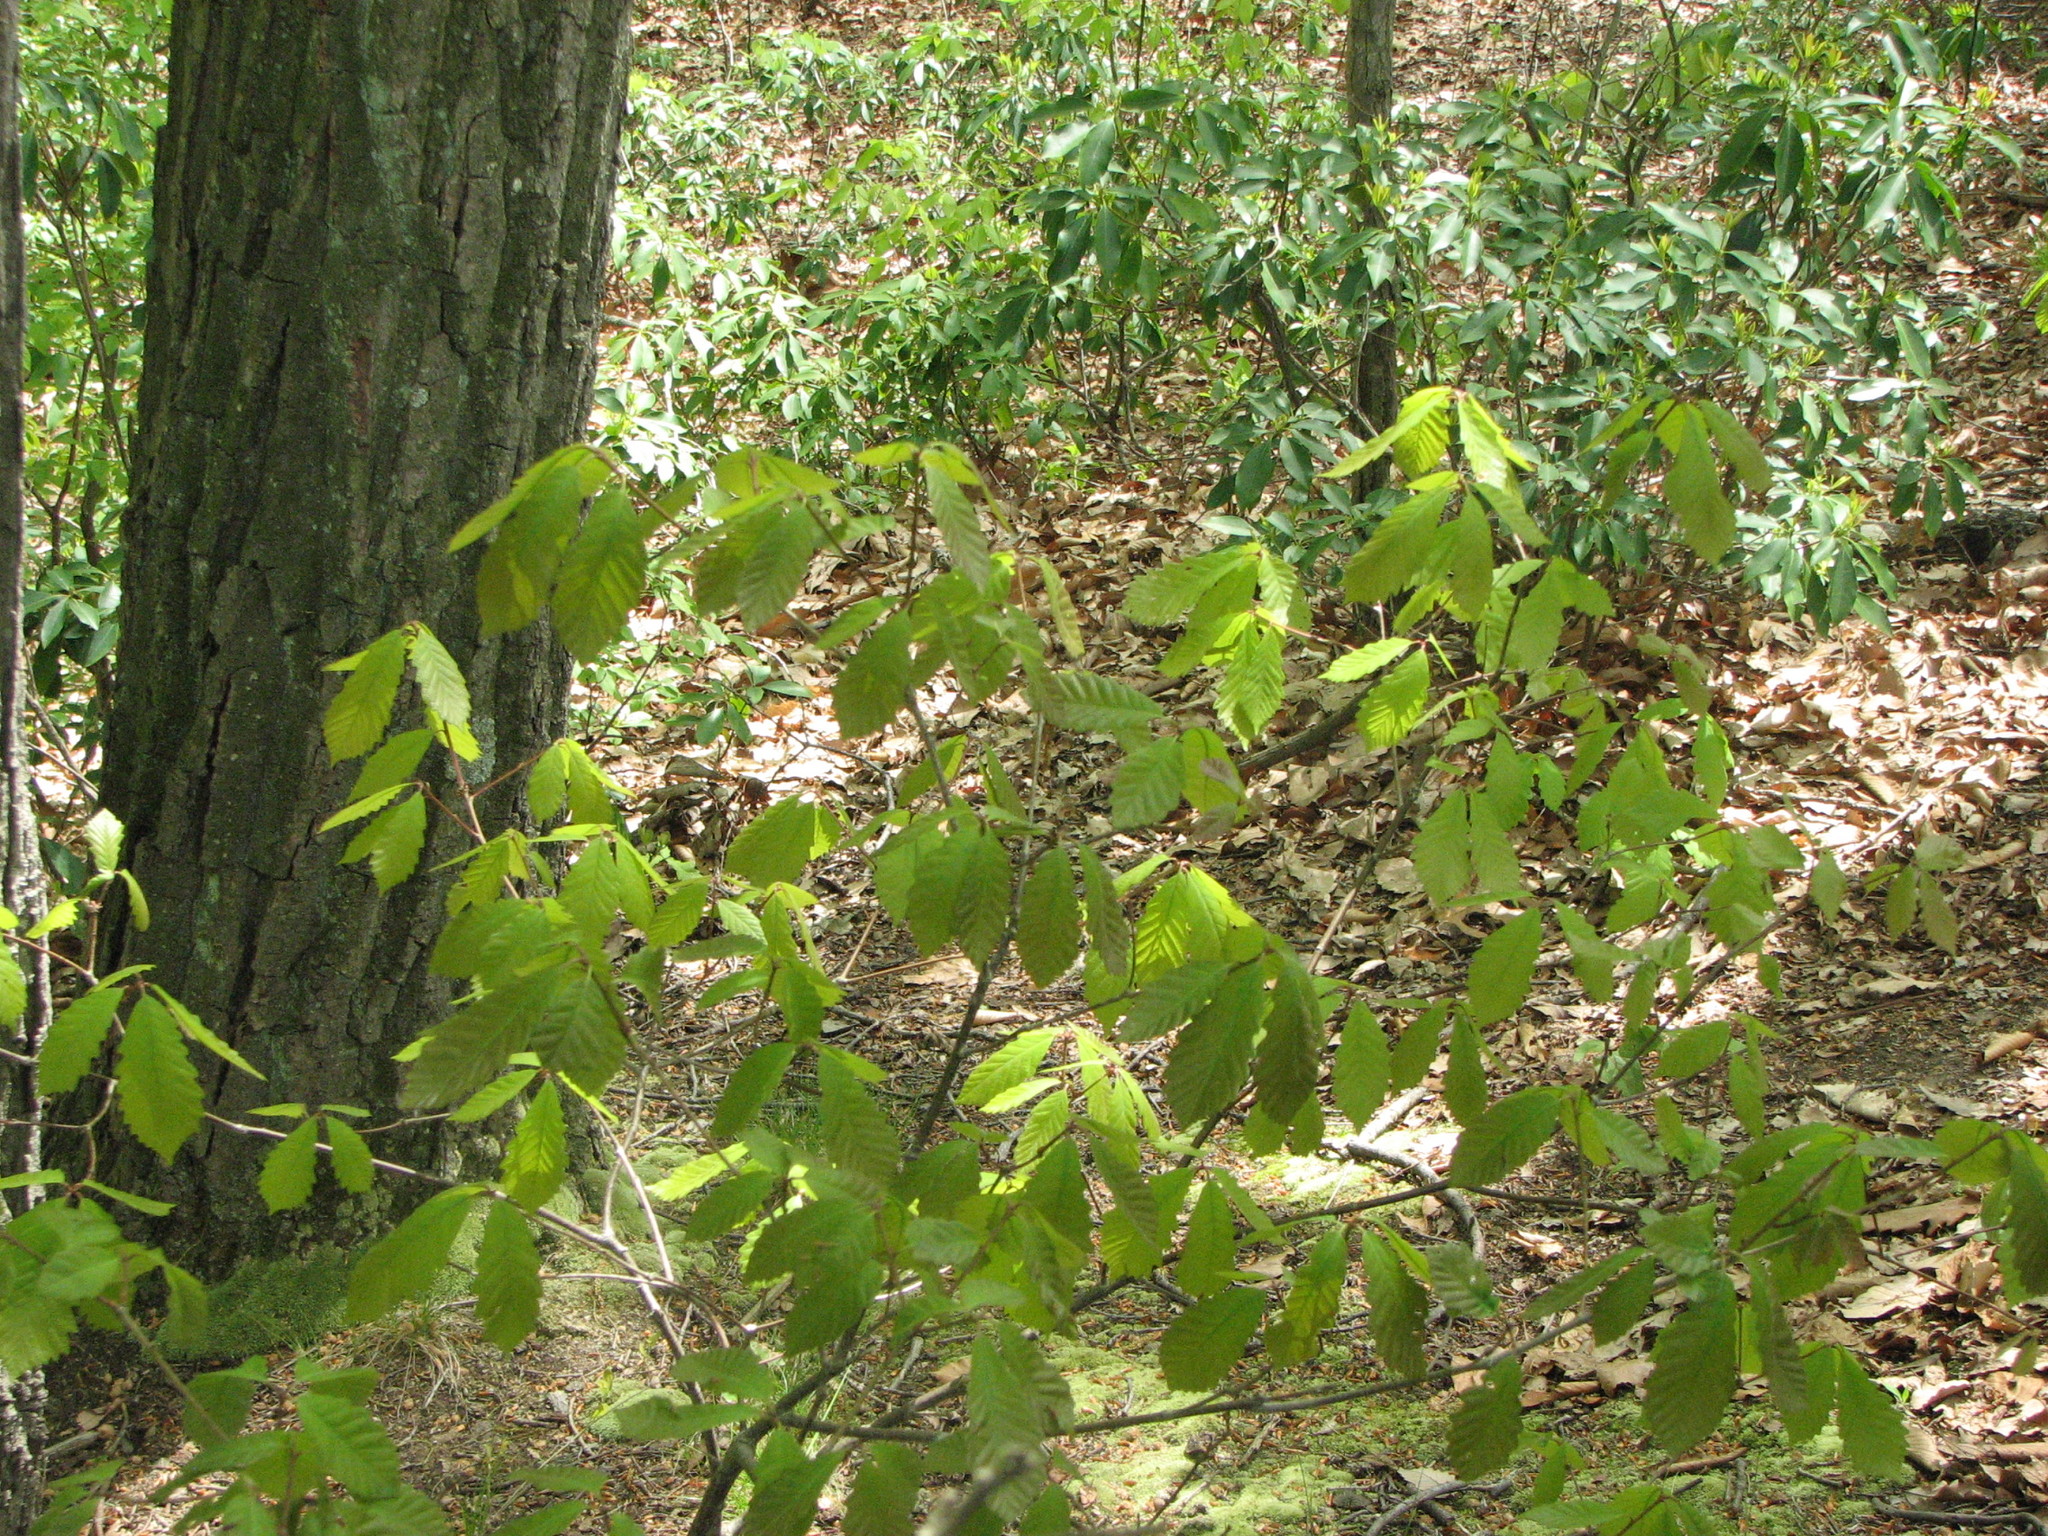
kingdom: Plantae
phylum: Tracheophyta
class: Magnoliopsida
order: Fagales
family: Fagaceae
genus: Castanea
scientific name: Castanea dentata
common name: American chestnut
